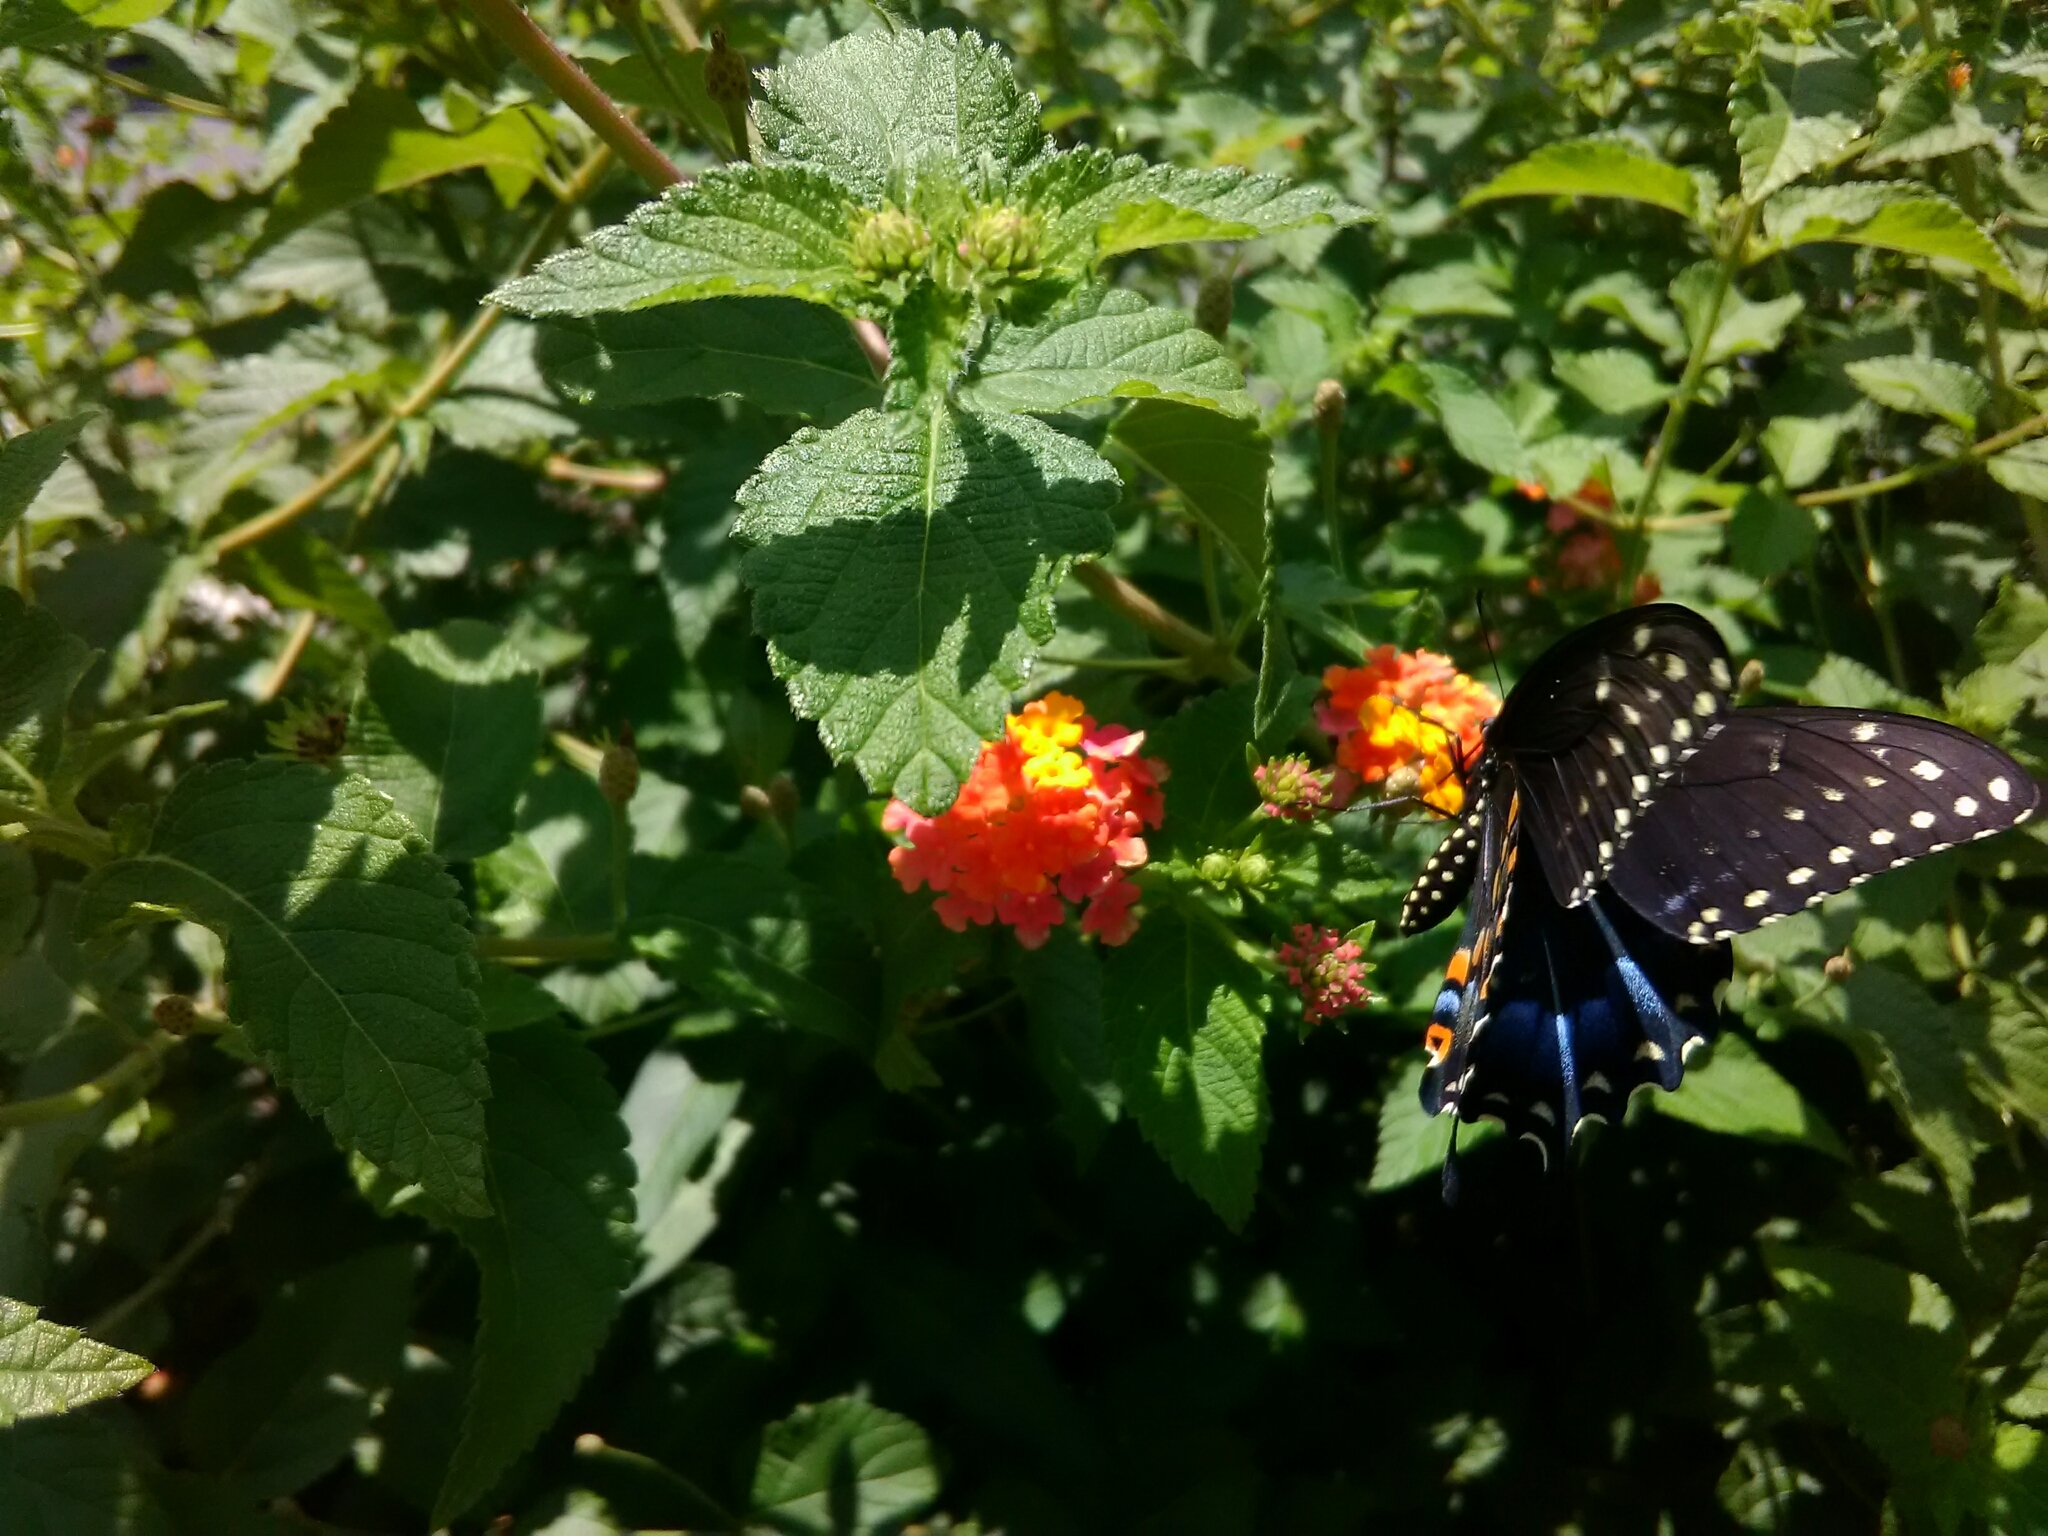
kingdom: Animalia
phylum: Arthropoda
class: Insecta
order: Lepidoptera
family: Papilionidae
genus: Papilio
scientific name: Papilio polyxenes
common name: Black swallowtail
